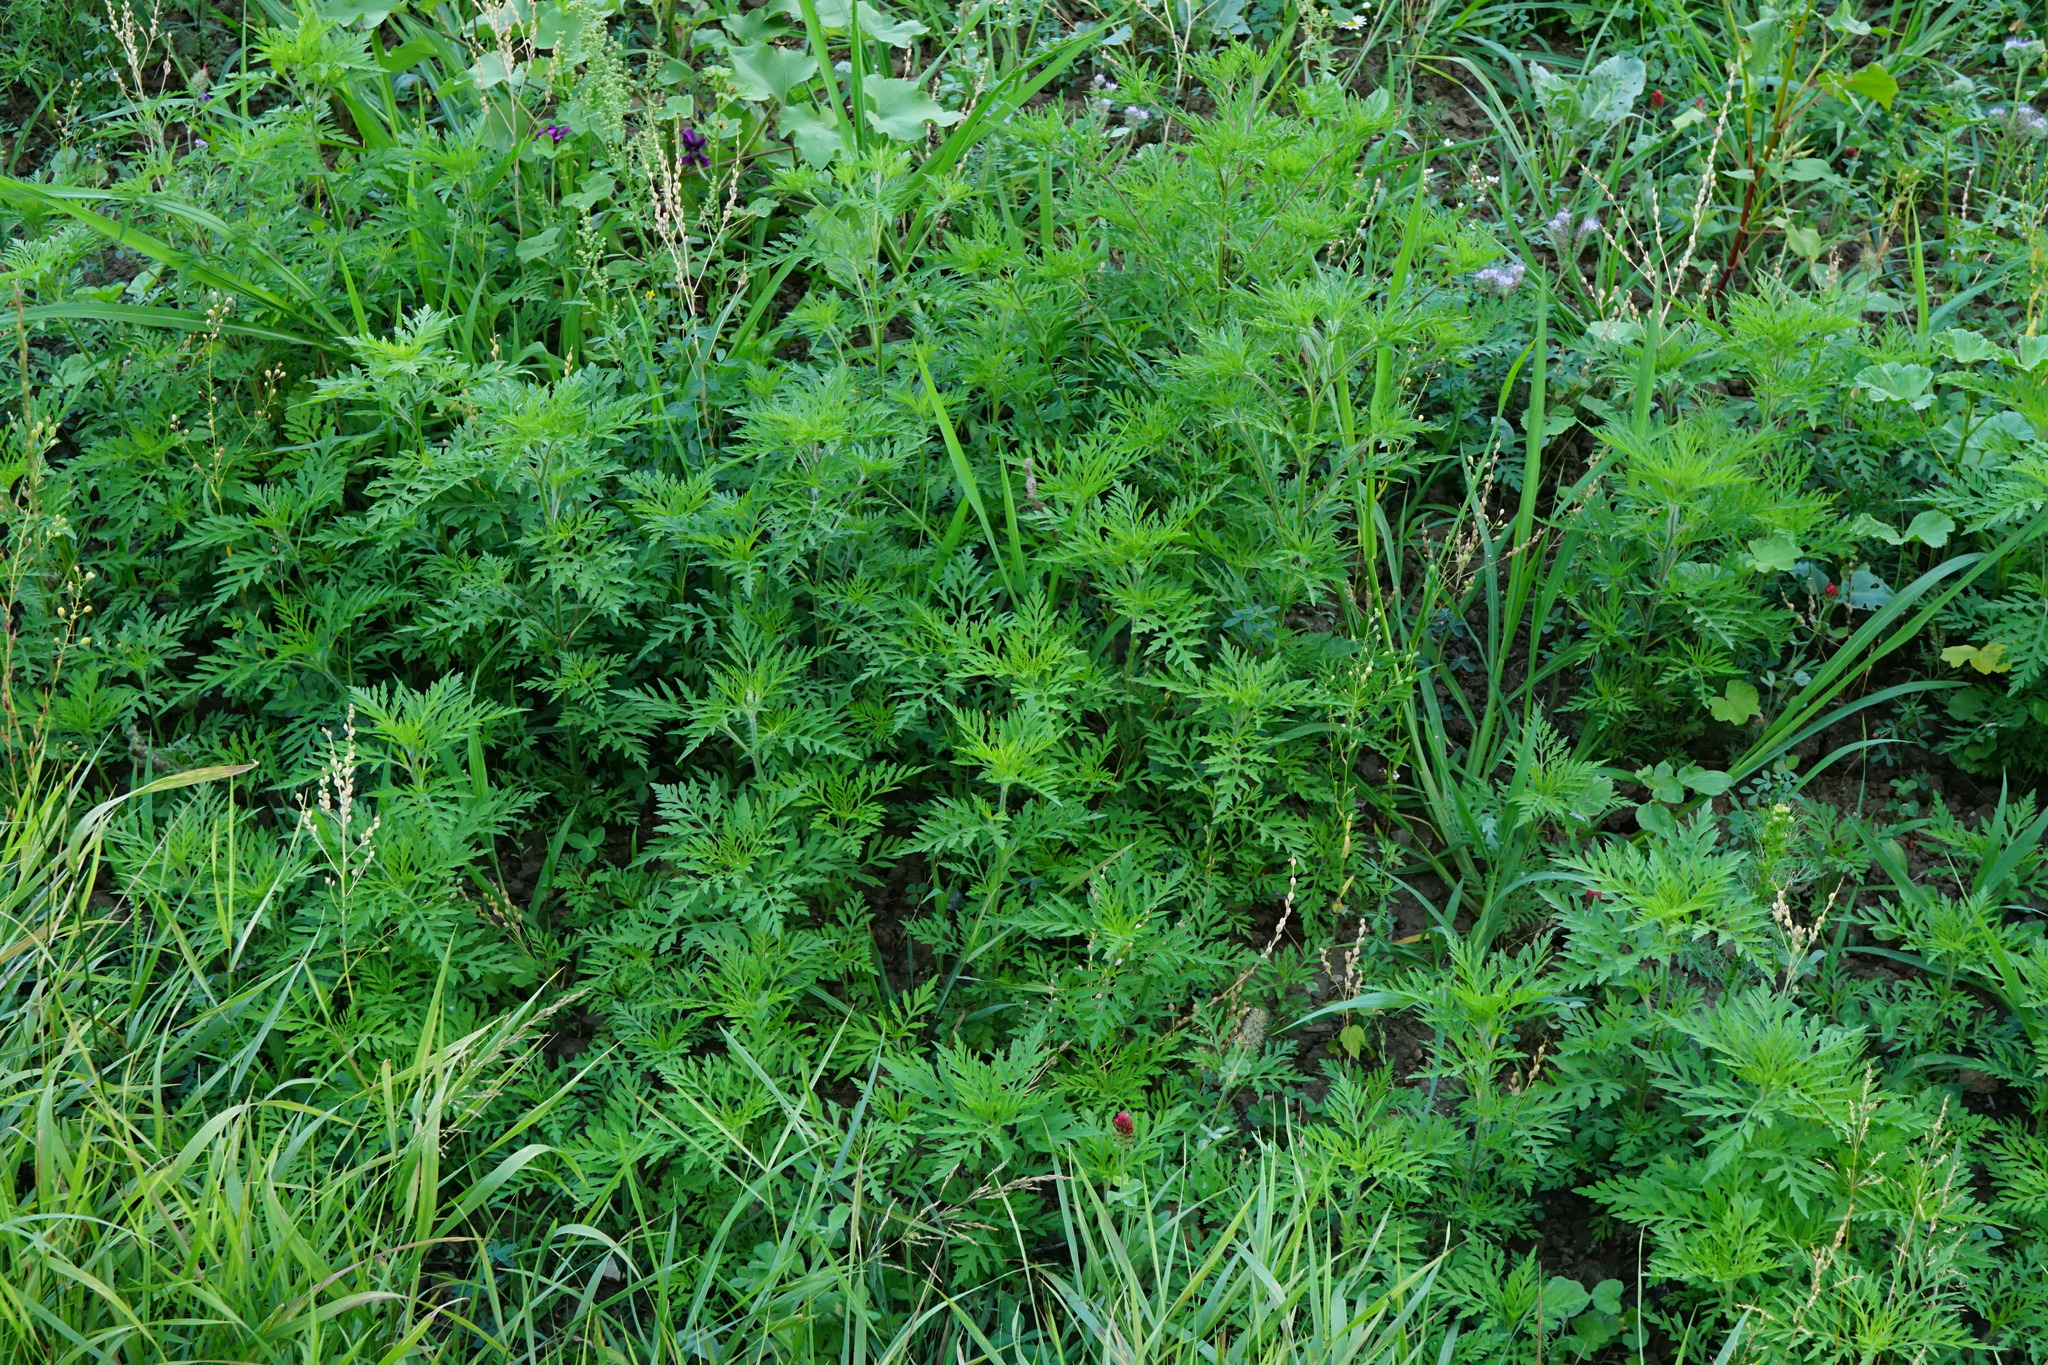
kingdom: Plantae
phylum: Tracheophyta
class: Magnoliopsida
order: Asterales
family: Asteraceae
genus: Ambrosia
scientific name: Ambrosia artemisiifolia
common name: Annual ragweed
